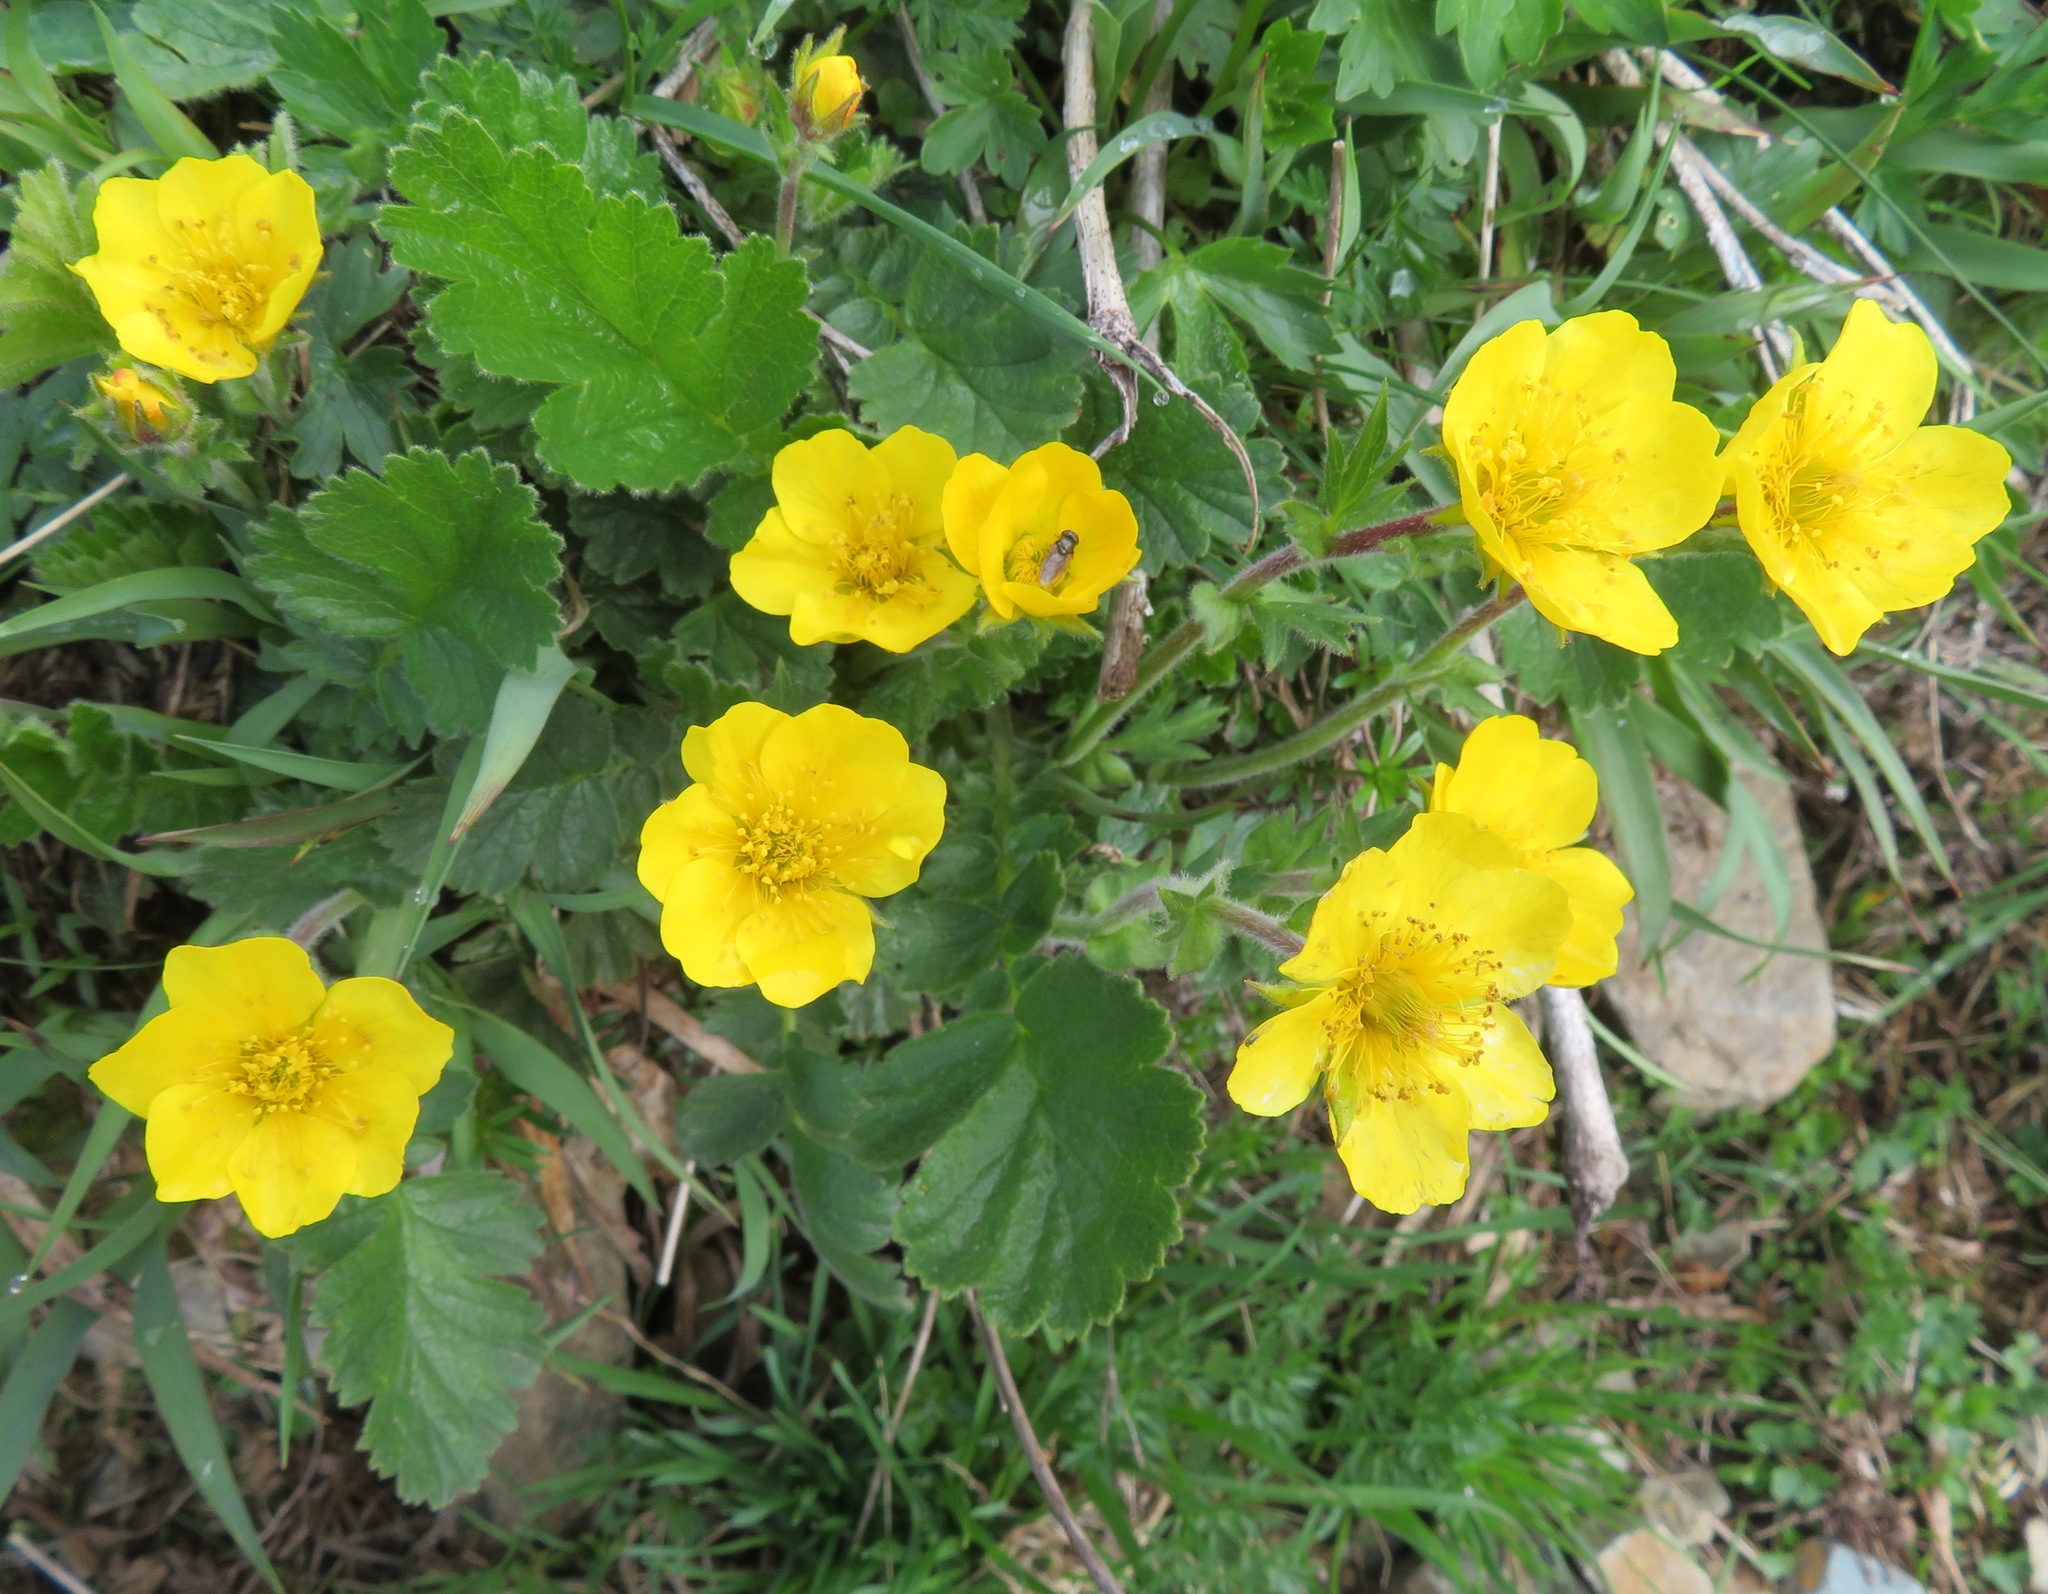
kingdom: Plantae
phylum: Tracheophyta
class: Magnoliopsida
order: Rosales
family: Rosaceae
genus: Geum
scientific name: Geum montanum
